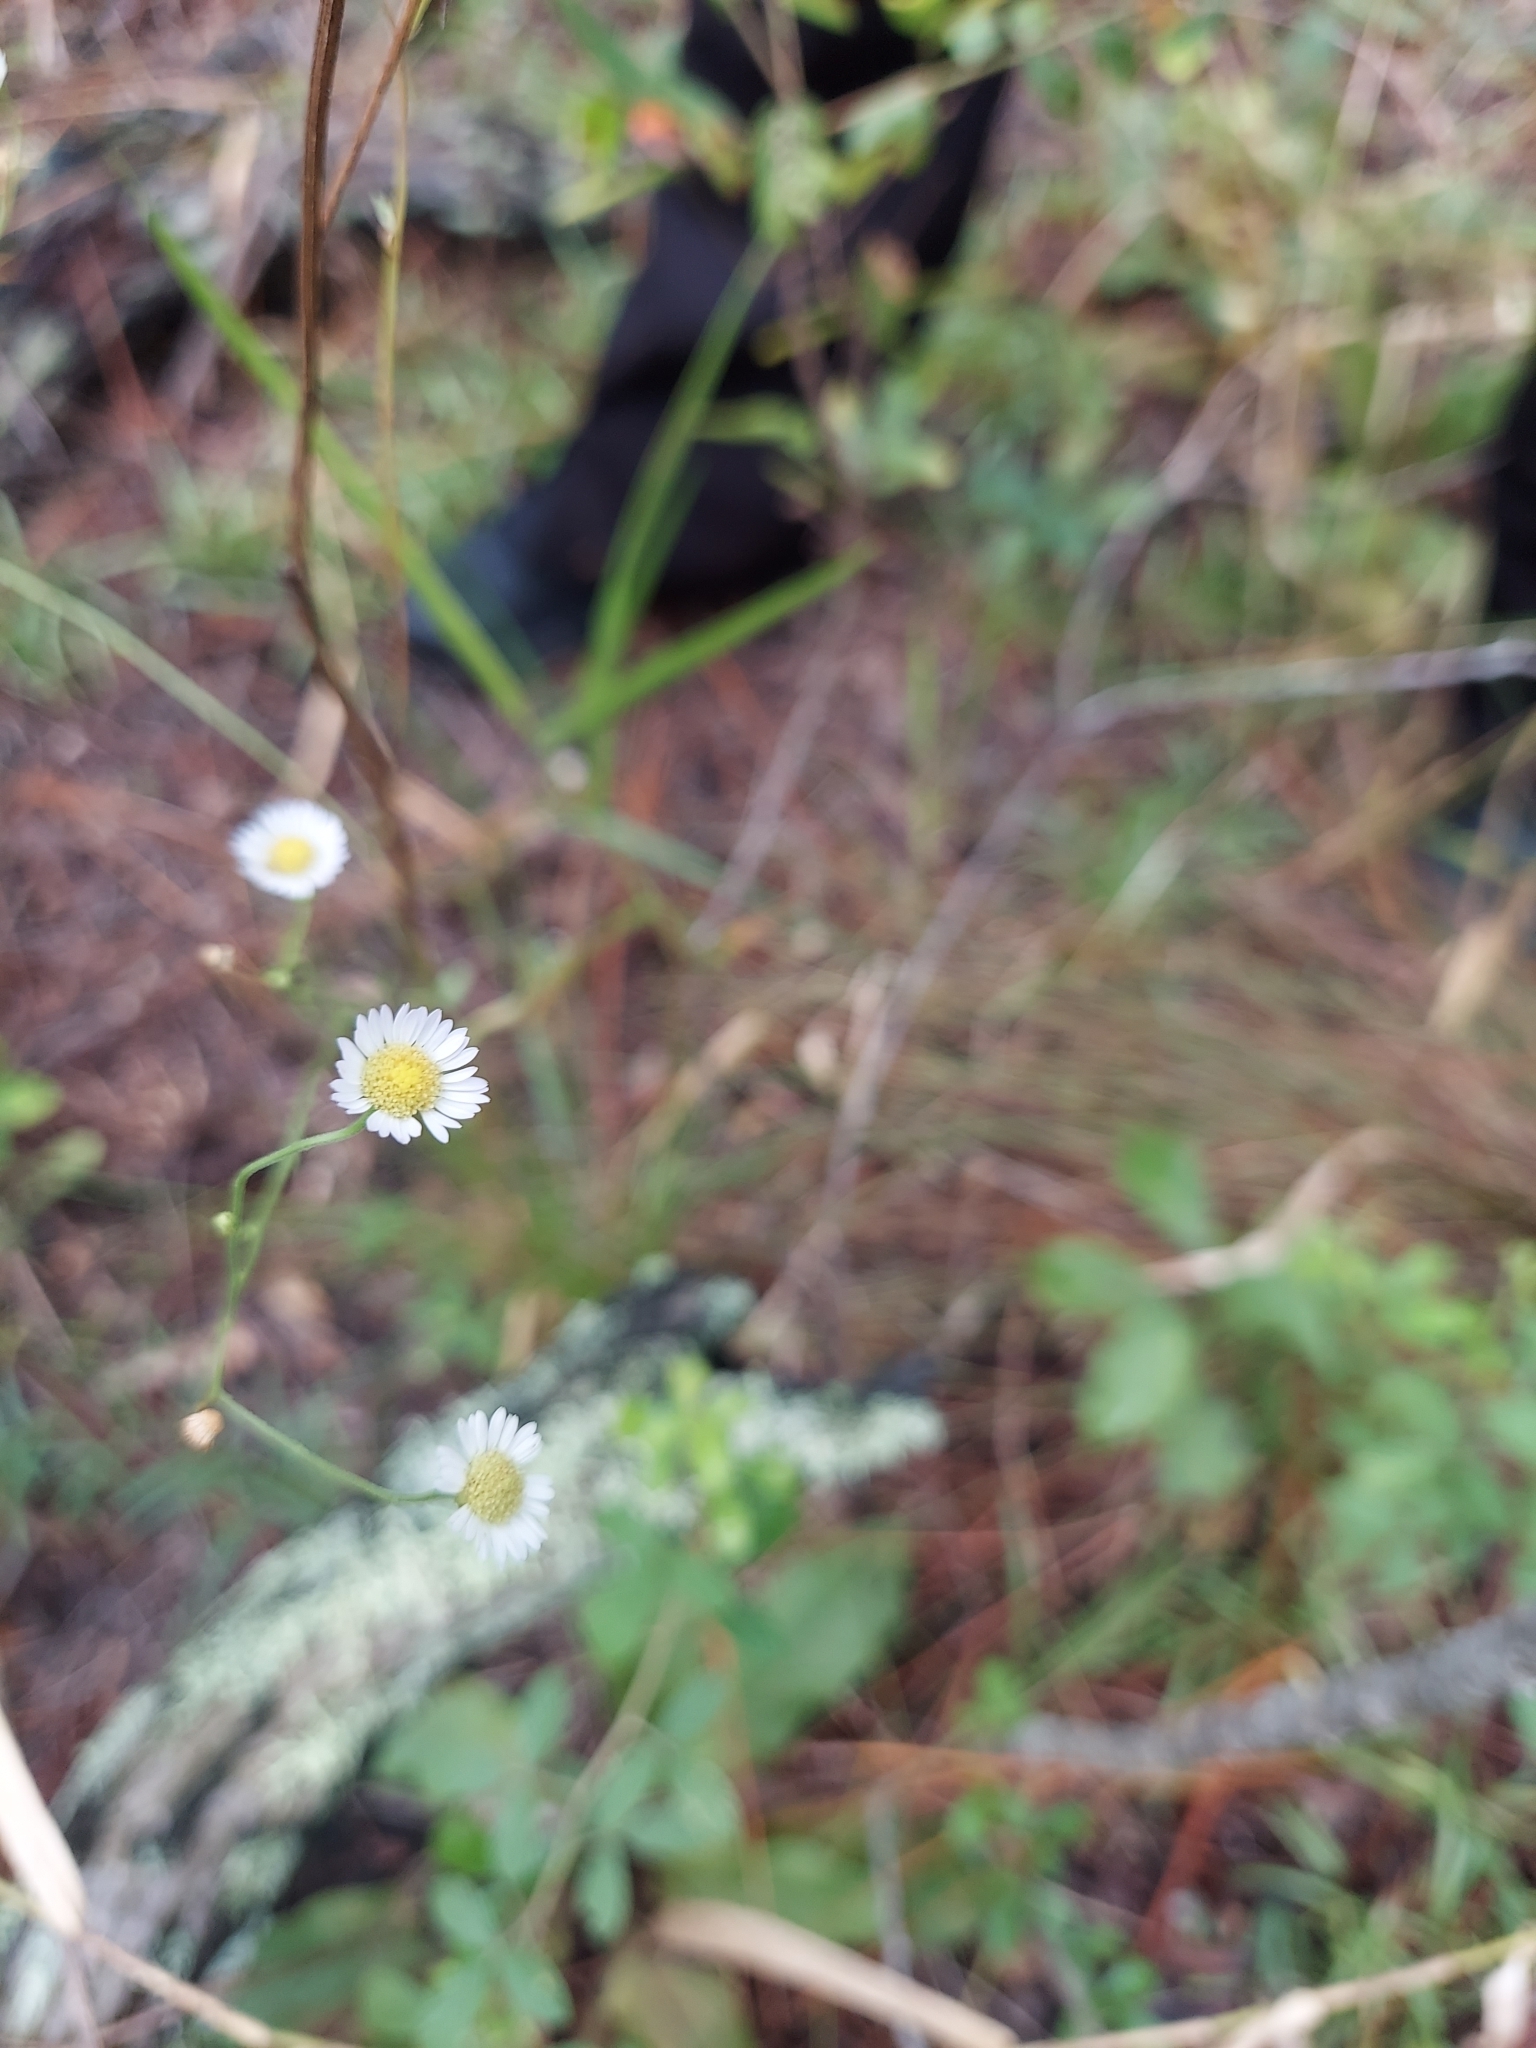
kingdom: Plantae
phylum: Tracheophyta
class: Magnoliopsida
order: Asterales
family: Asteraceae
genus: Erigeron
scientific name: Erigeron strigosus
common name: Common eastern fleabane
